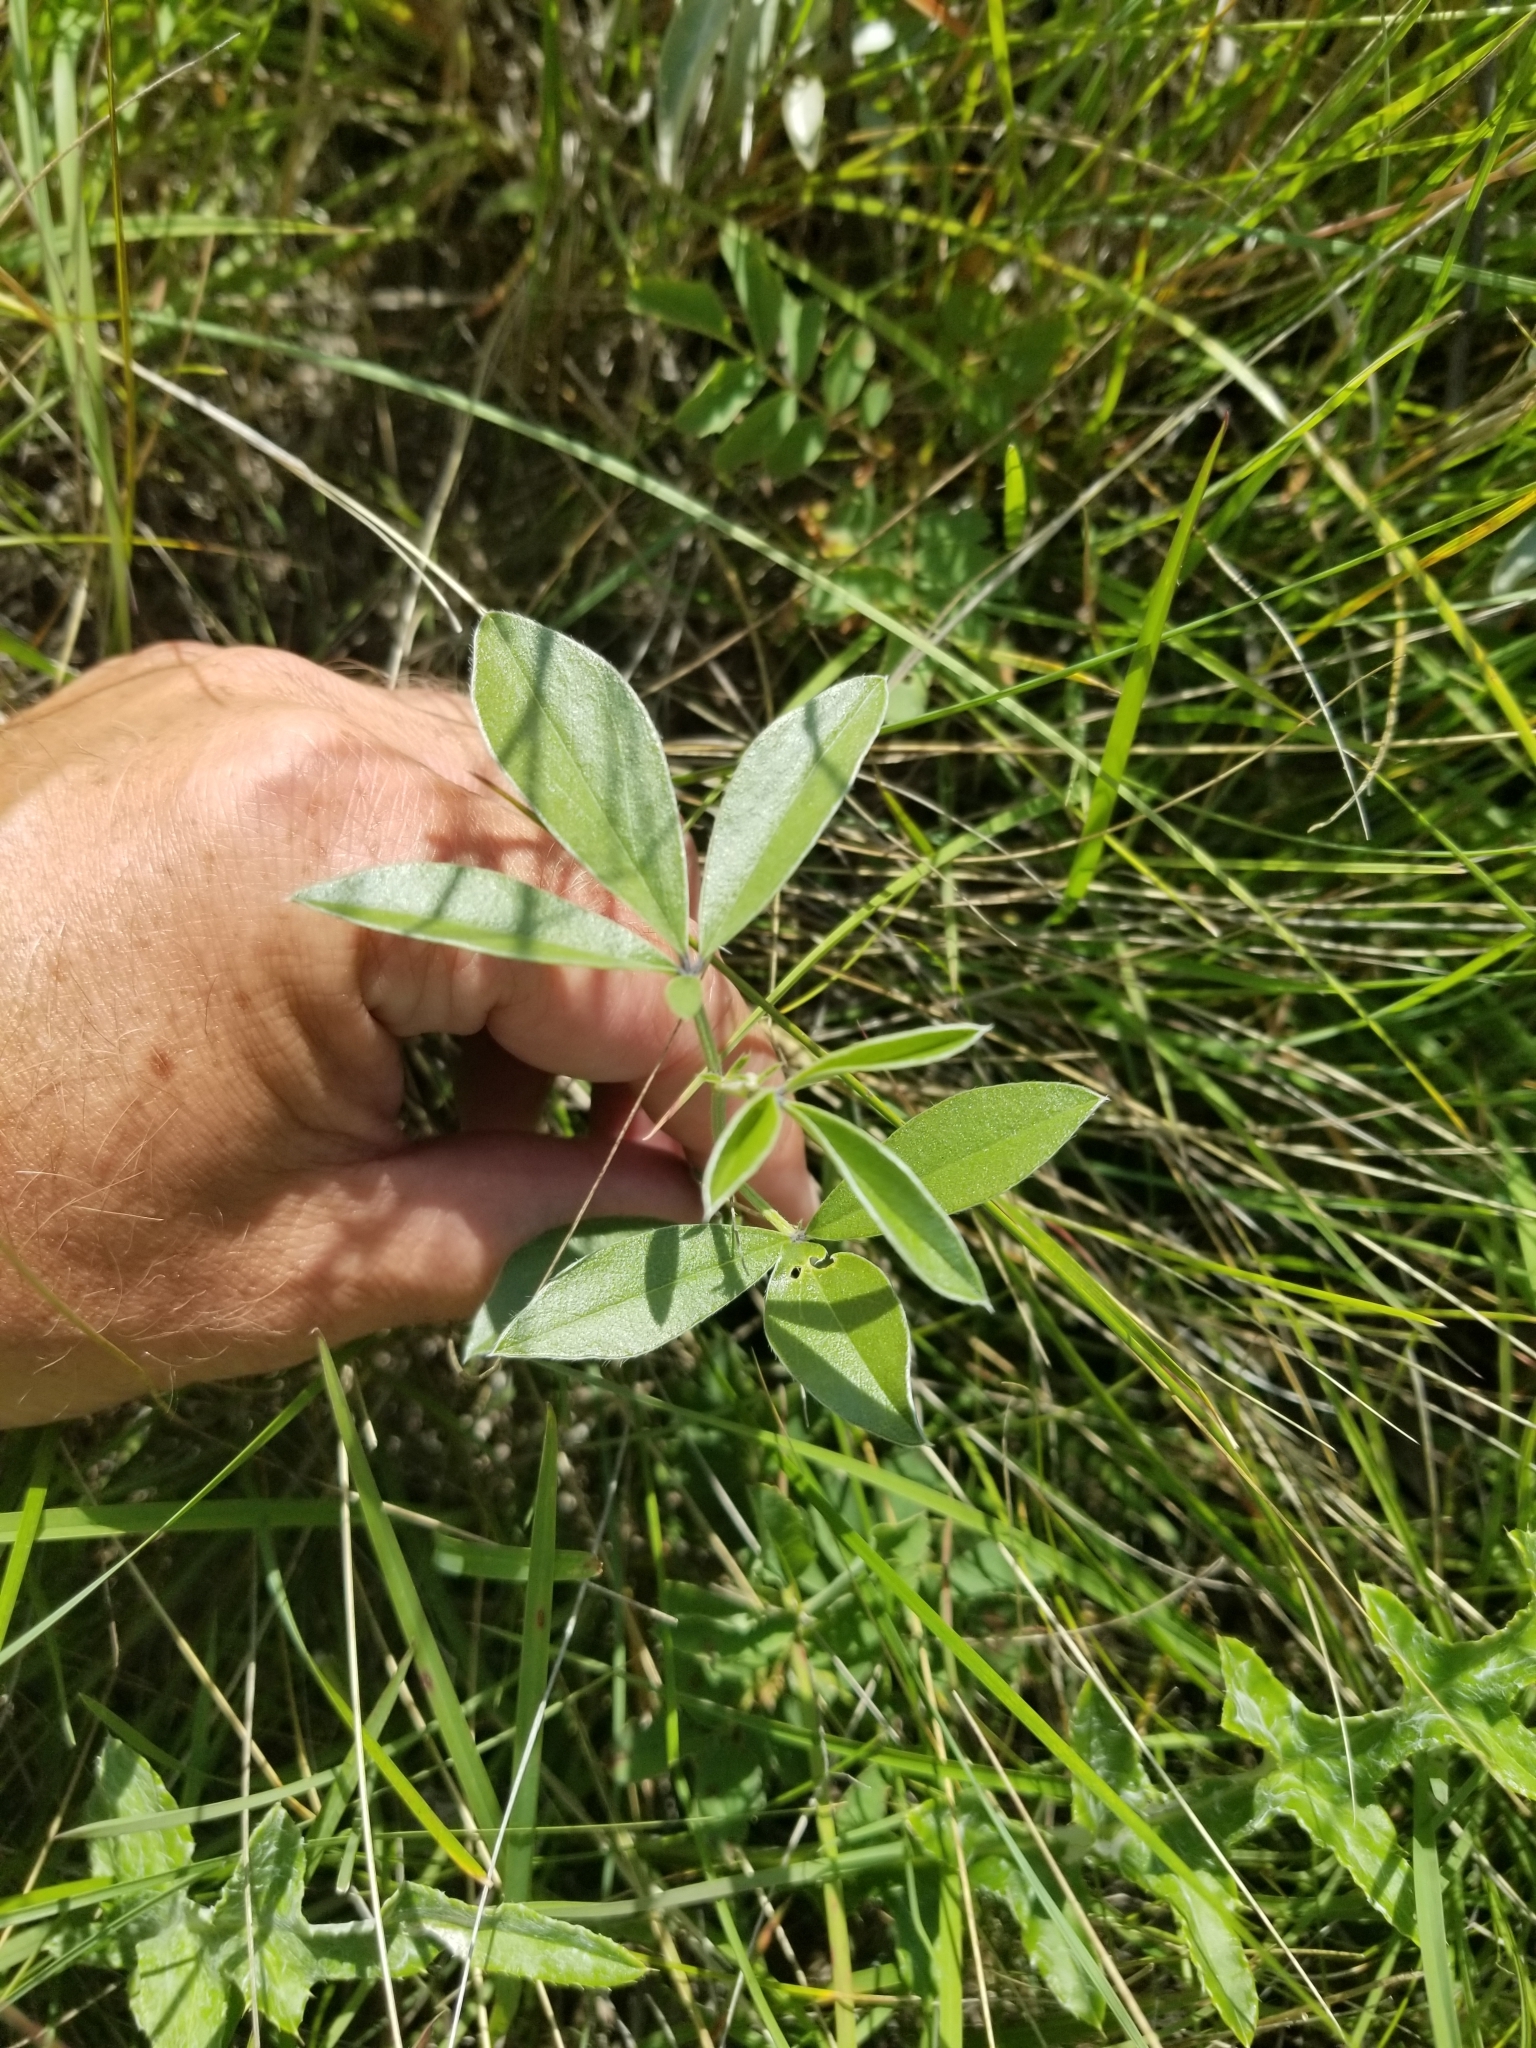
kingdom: Plantae
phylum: Tracheophyta
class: Magnoliopsida
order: Fabales
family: Fabaceae
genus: Pediomelum
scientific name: Pediomelum argophyllum
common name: Silver-leaved indian breadroot
